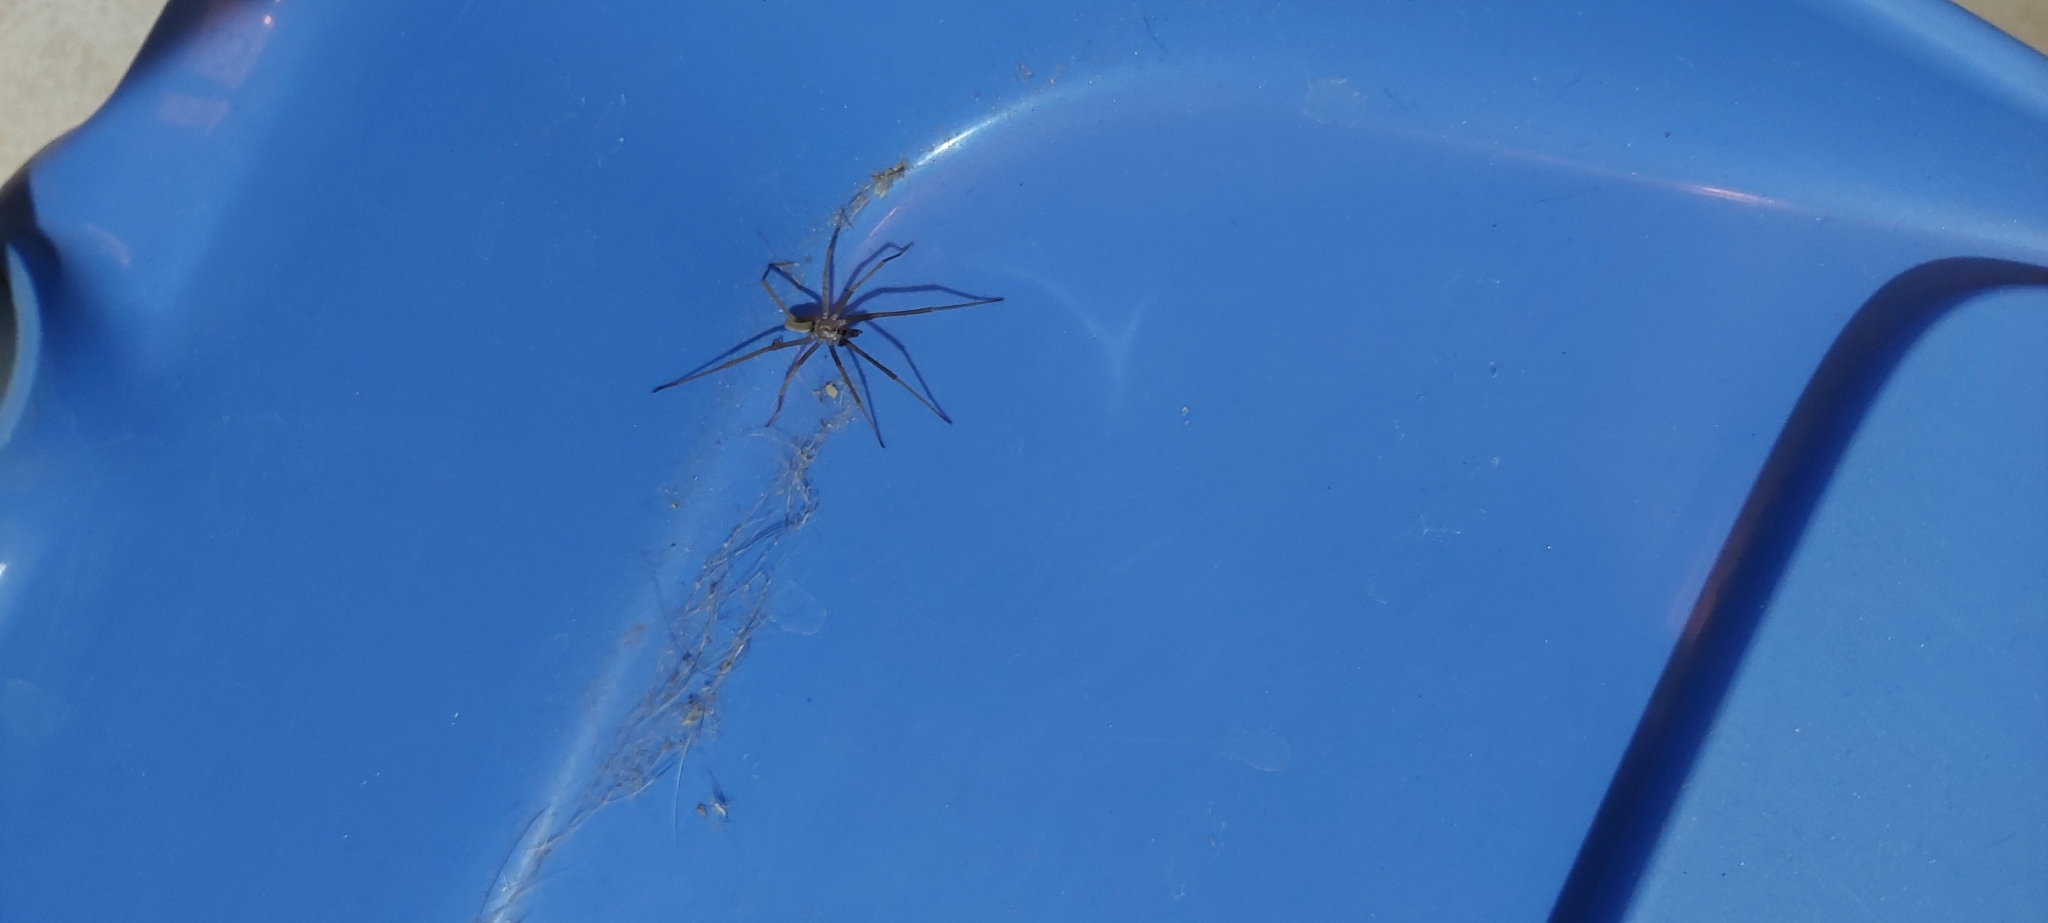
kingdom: Animalia
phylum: Arthropoda
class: Arachnida
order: Araneae
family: Filistatidae
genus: Kukulcania
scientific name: Kukulcania hibernalis
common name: Crevice weaver
